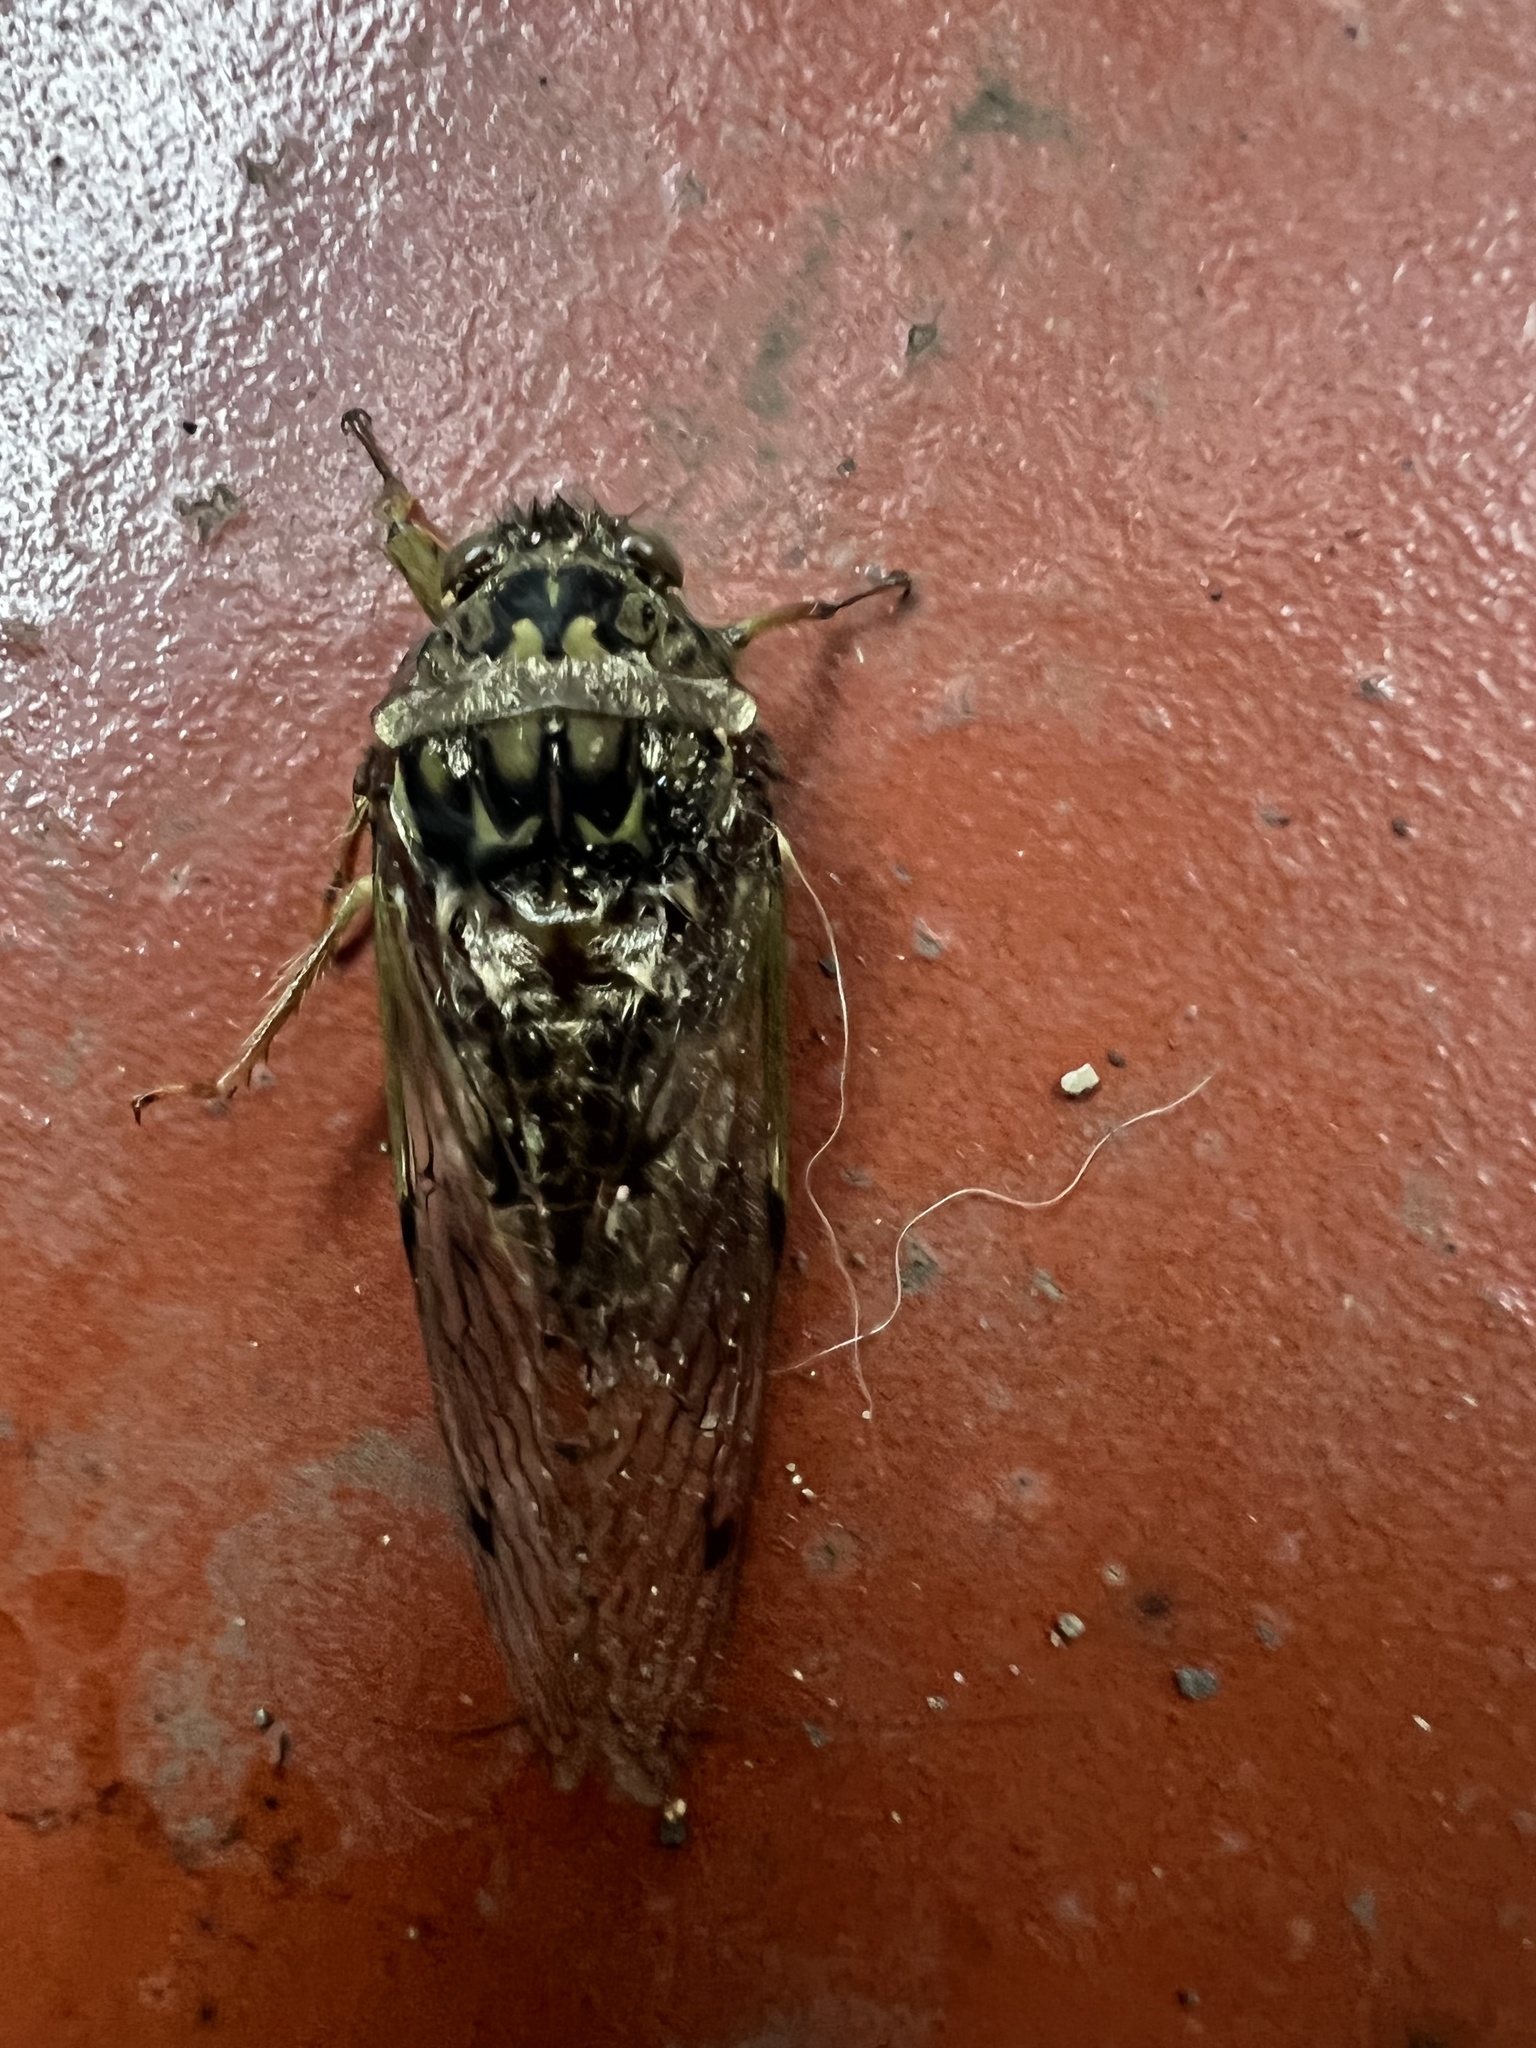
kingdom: Animalia
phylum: Arthropoda
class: Insecta
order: Hemiptera
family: Cicadidae
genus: Carineta
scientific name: Carineta trivittata
